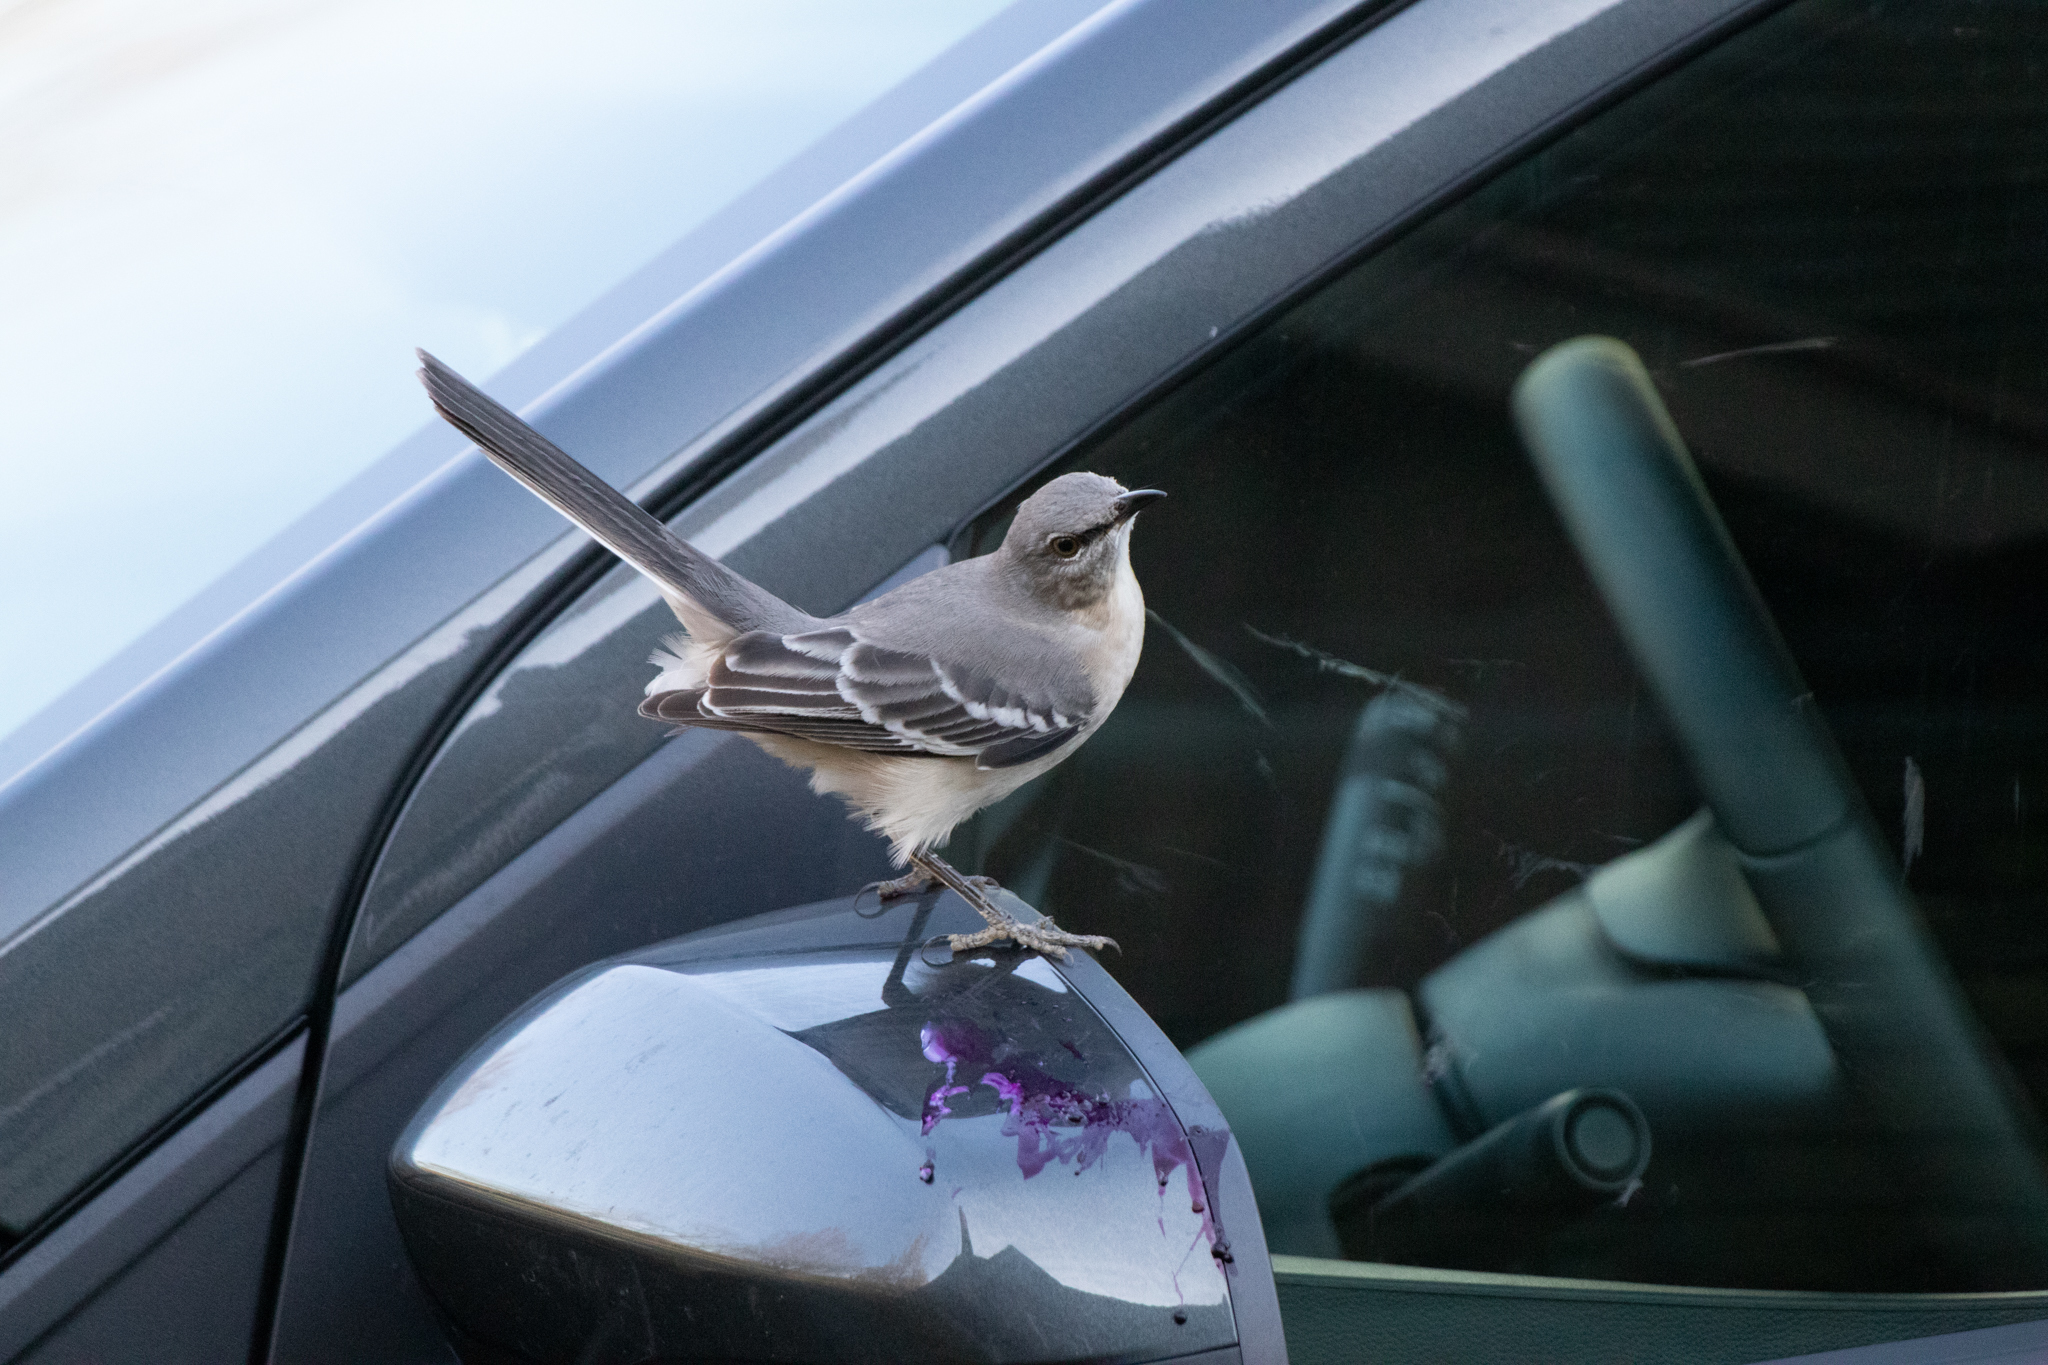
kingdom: Animalia
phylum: Chordata
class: Aves
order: Passeriformes
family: Mimidae
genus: Mimus
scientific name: Mimus polyglottos
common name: Northern mockingbird
